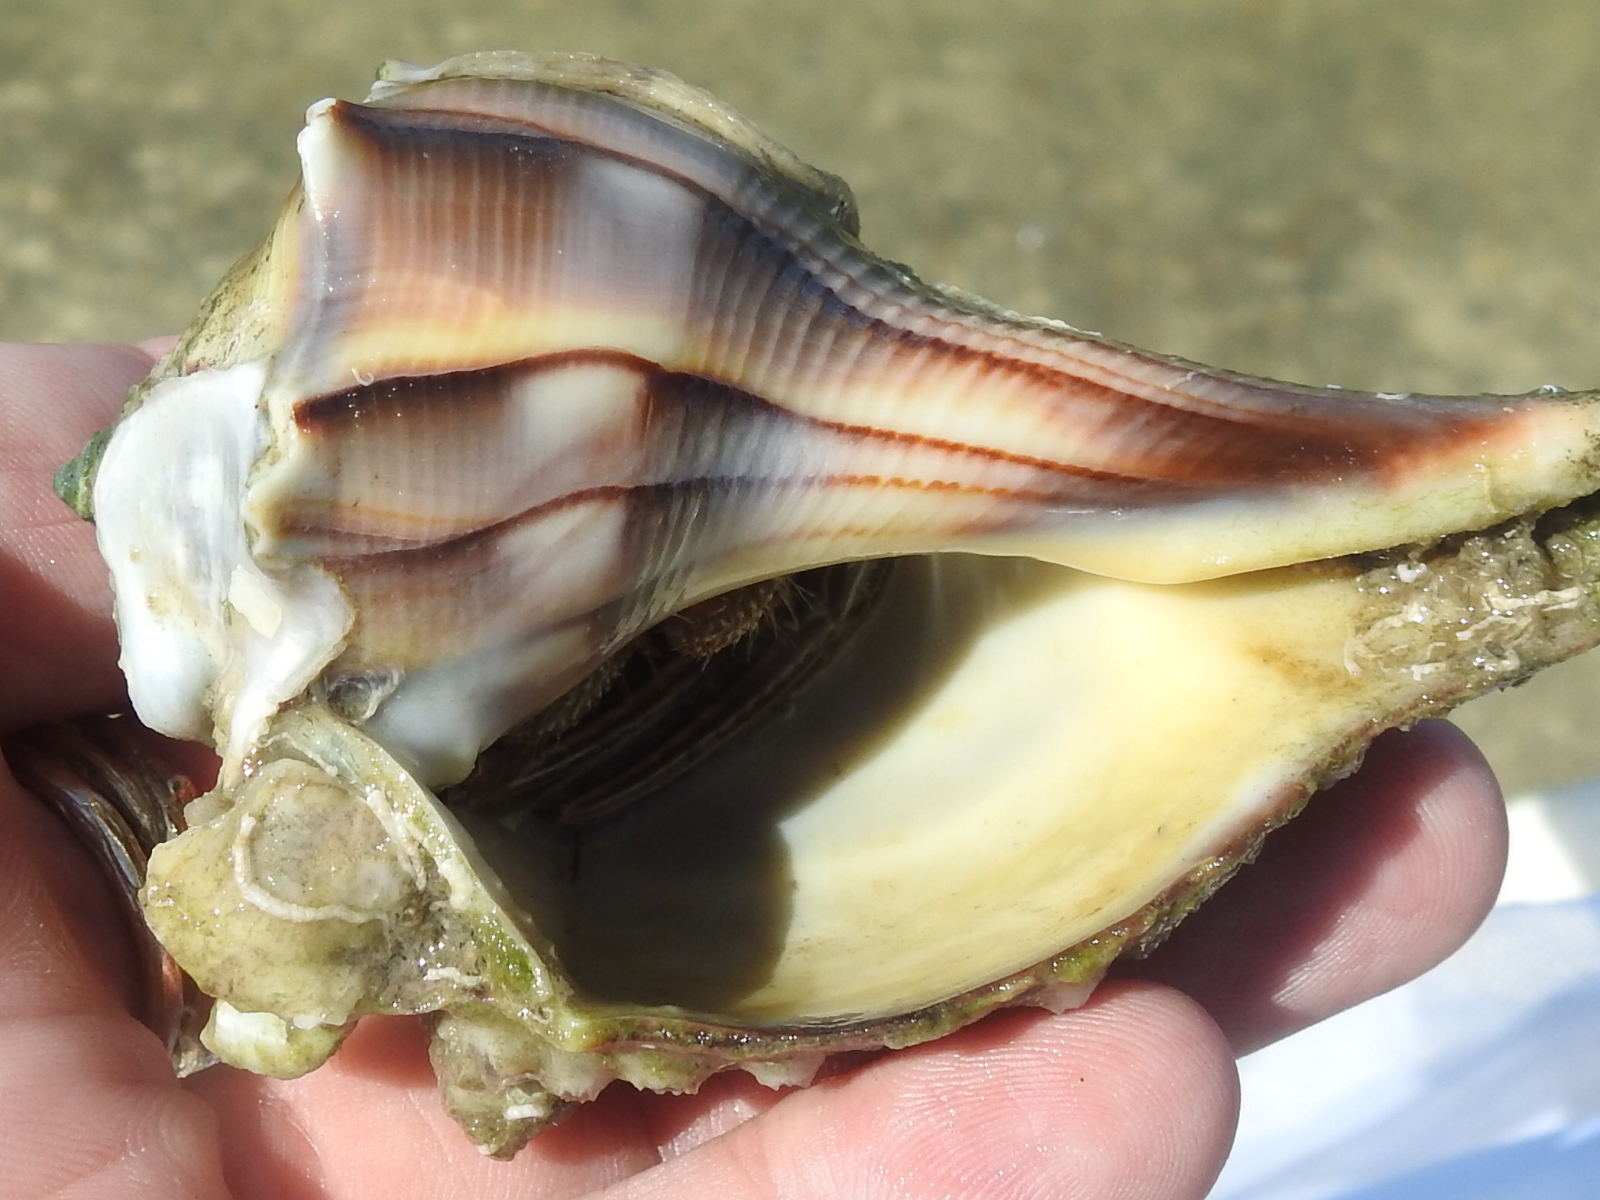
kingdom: Animalia
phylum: Arthropoda
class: Malacostraca
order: Decapoda
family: Diogenidae
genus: Clibanarius
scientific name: Clibanarius vittatus
